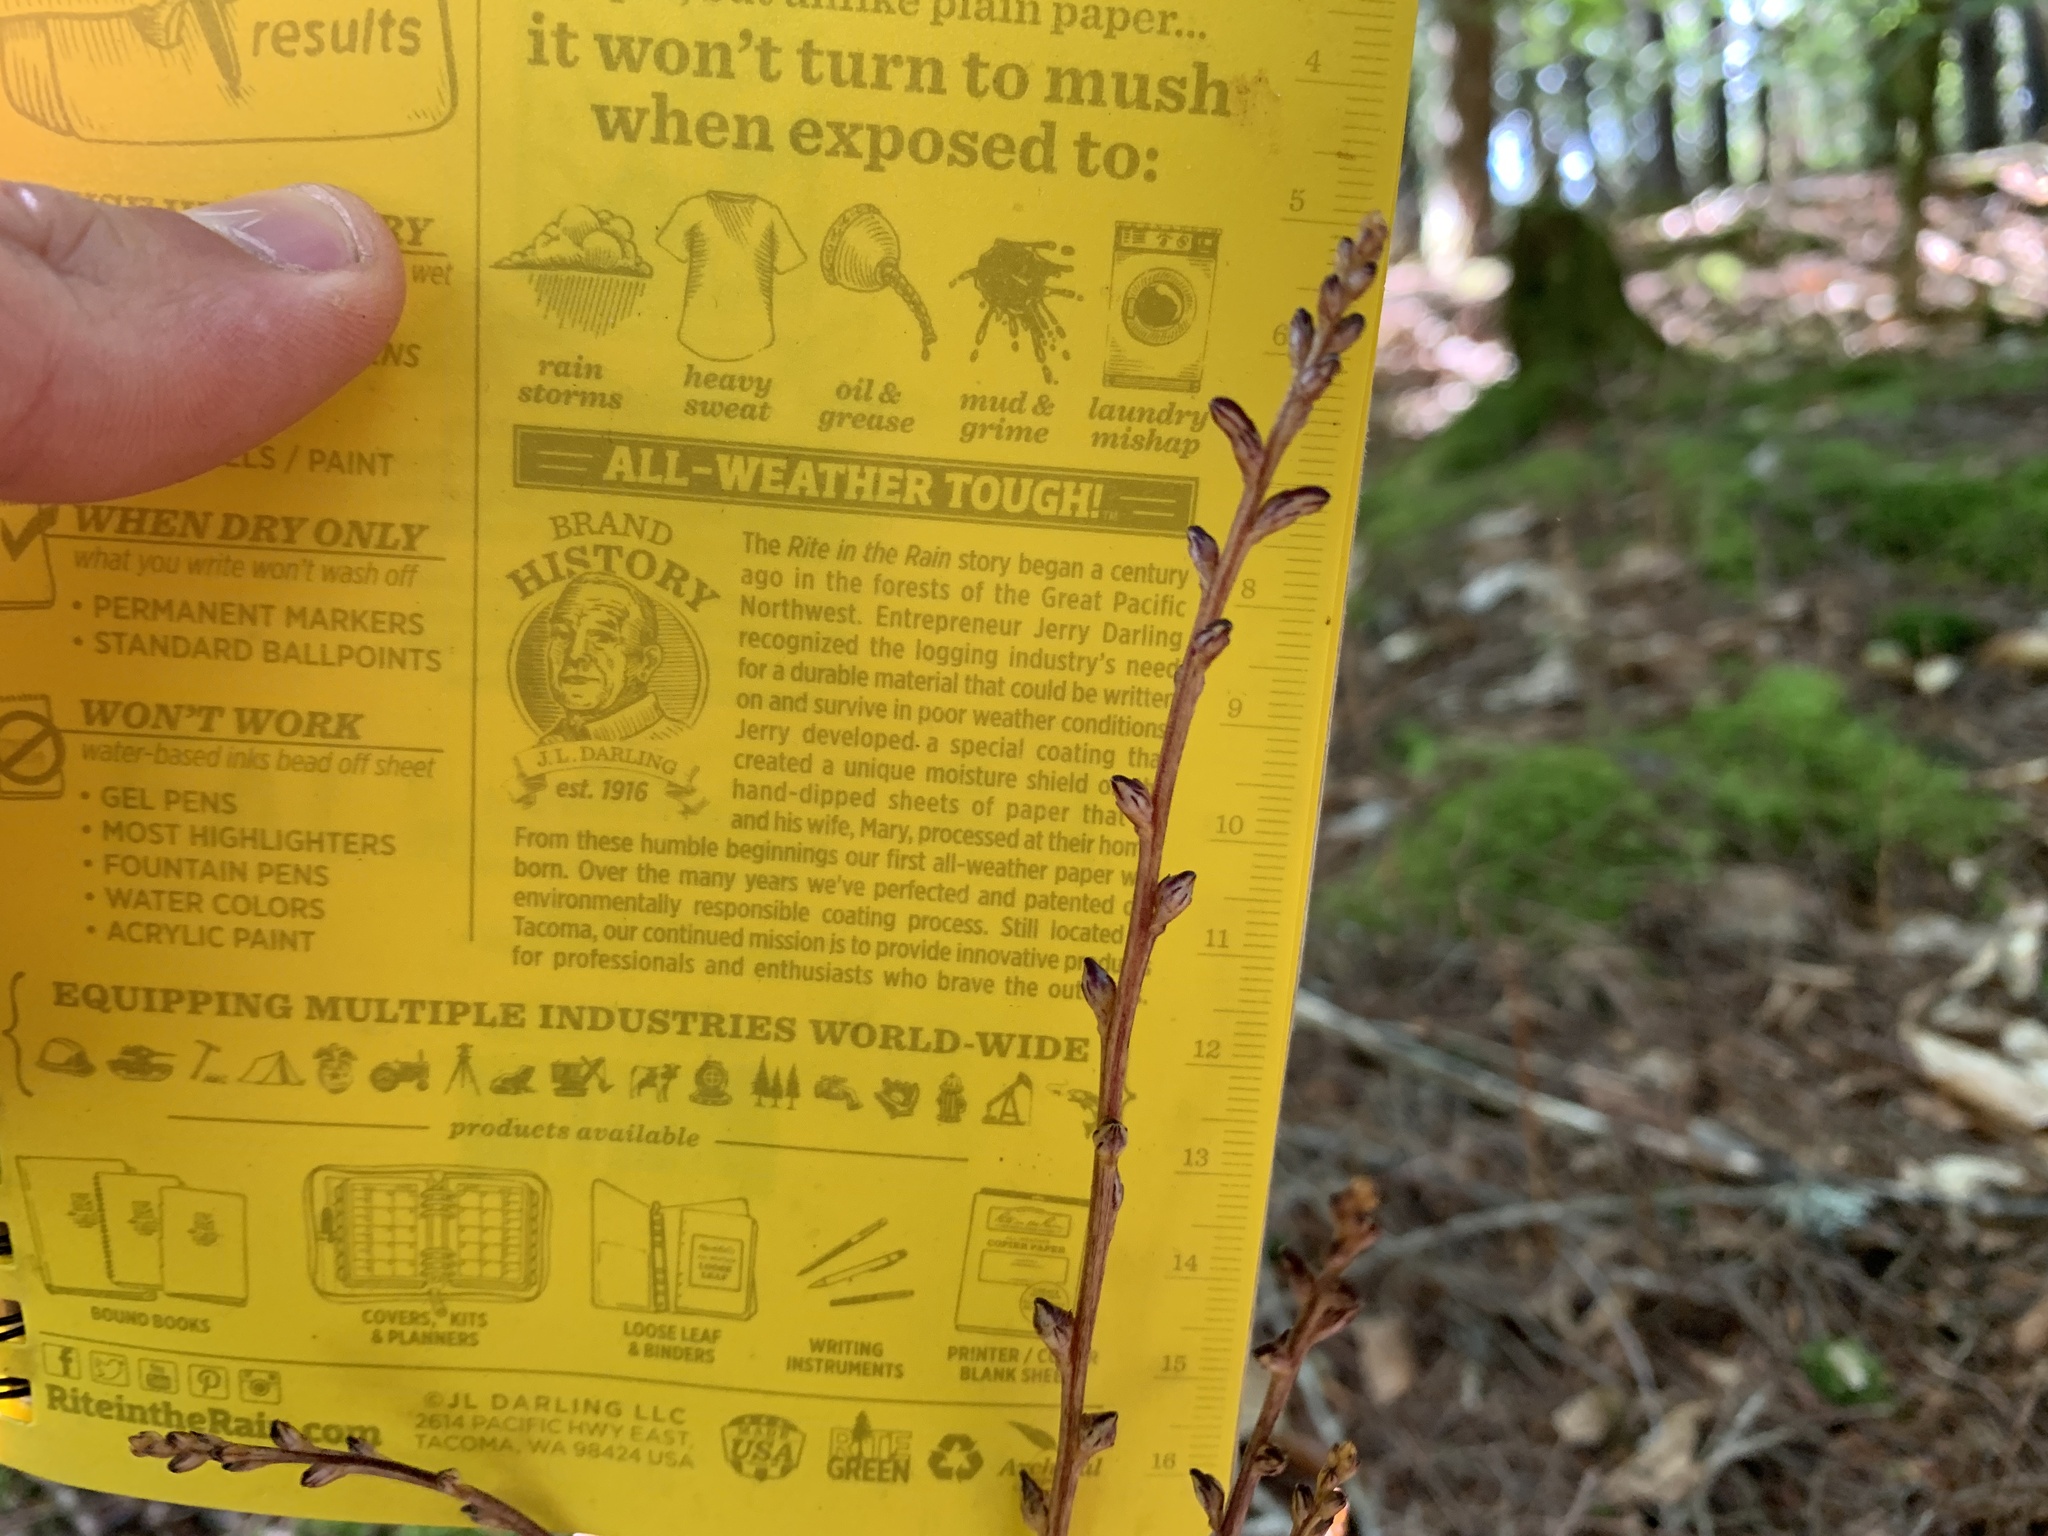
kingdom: Plantae
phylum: Tracheophyta
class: Magnoliopsida
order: Lamiales
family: Orobanchaceae
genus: Epifagus
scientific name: Epifagus virginiana
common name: Beechdrops
